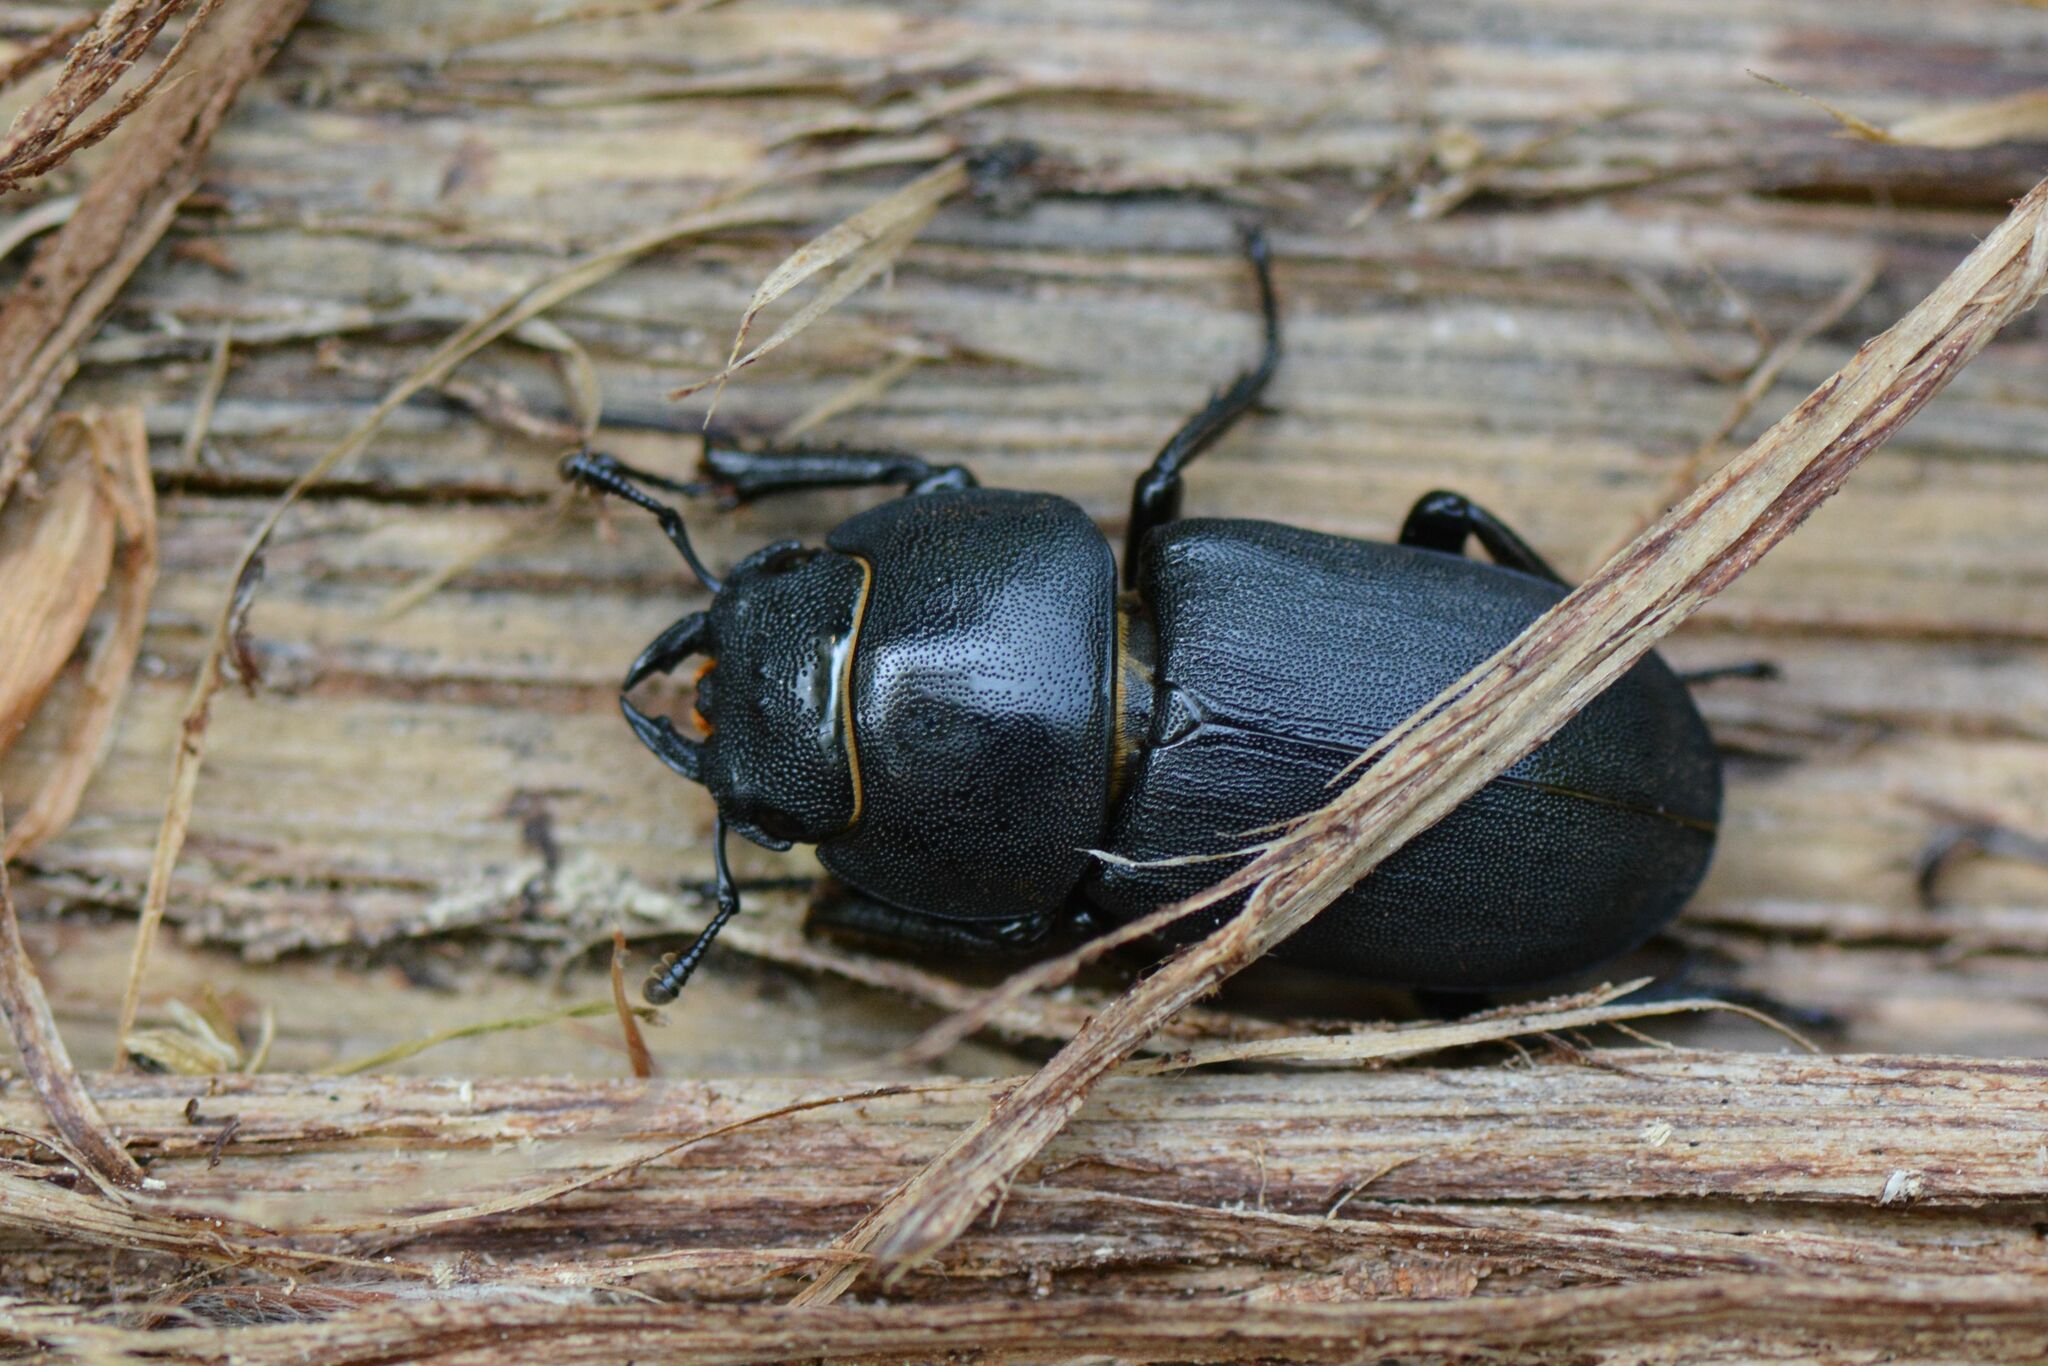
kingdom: Animalia
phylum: Arthropoda
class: Insecta
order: Coleoptera
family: Lucanidae
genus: Dorcus
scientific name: Dorcus parallelipipedus
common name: Lesser stag beetle
